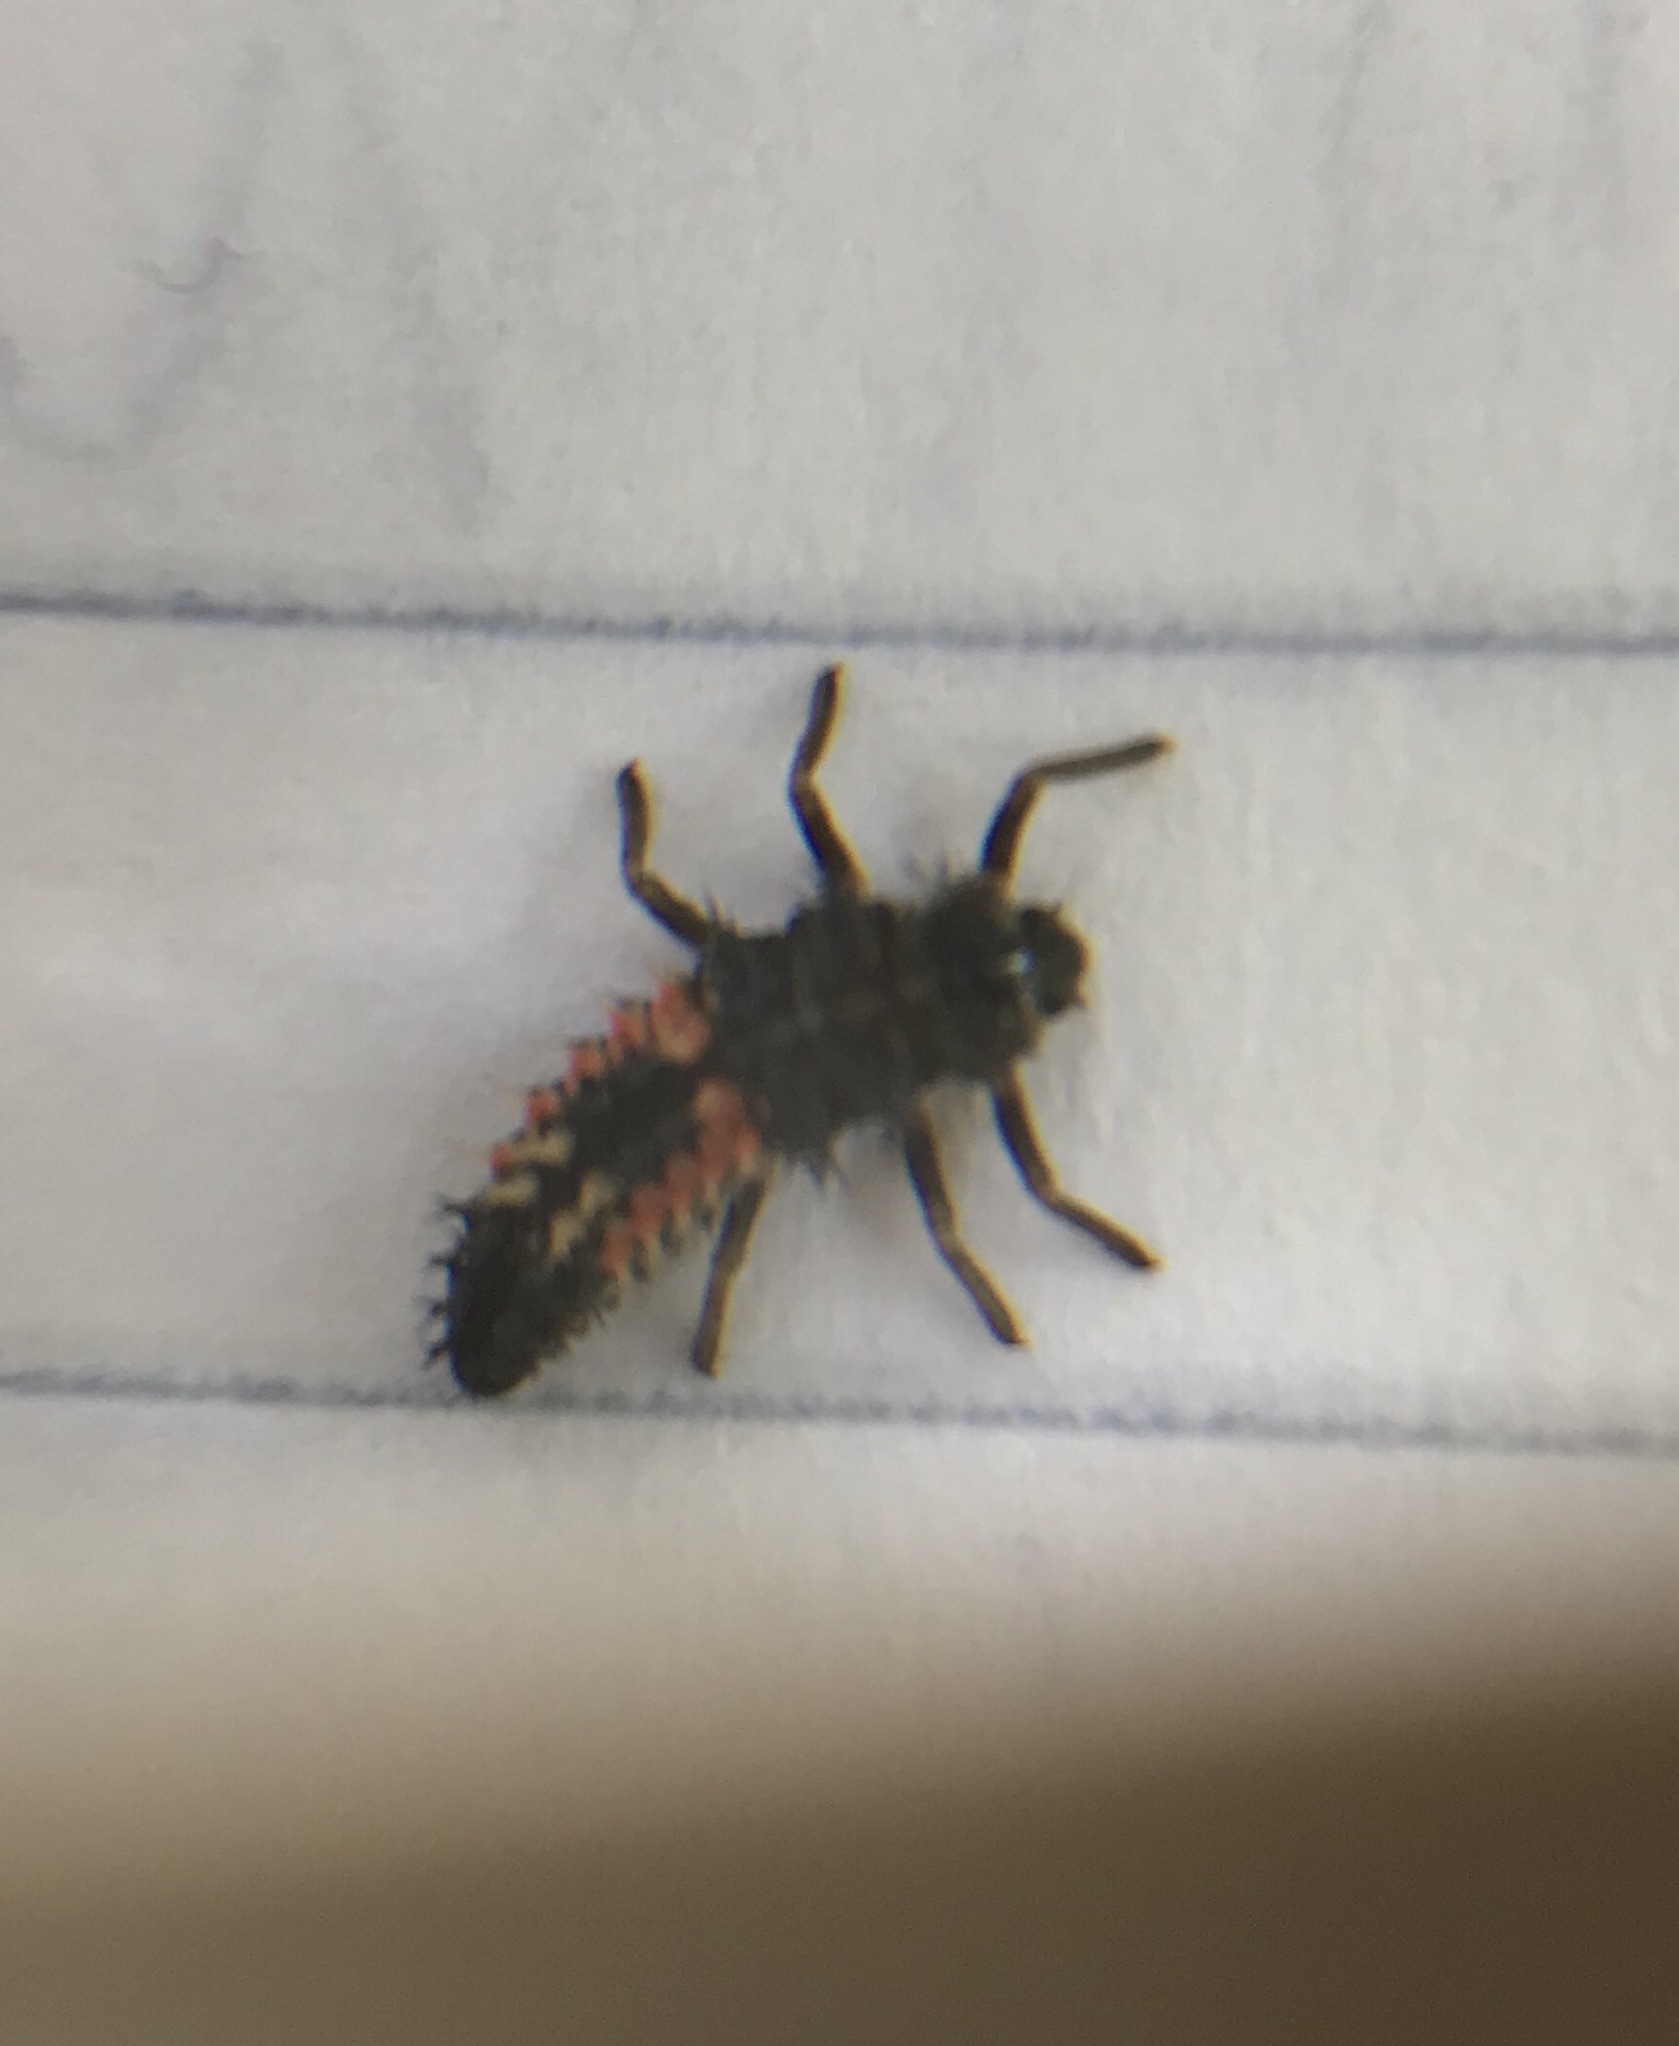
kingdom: Animalia
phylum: Arthropoda
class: Insecta
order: Coleoptera
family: Coccinellidae
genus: Harmonia
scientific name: Harmonia axyridis
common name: Harlequin ladybird
